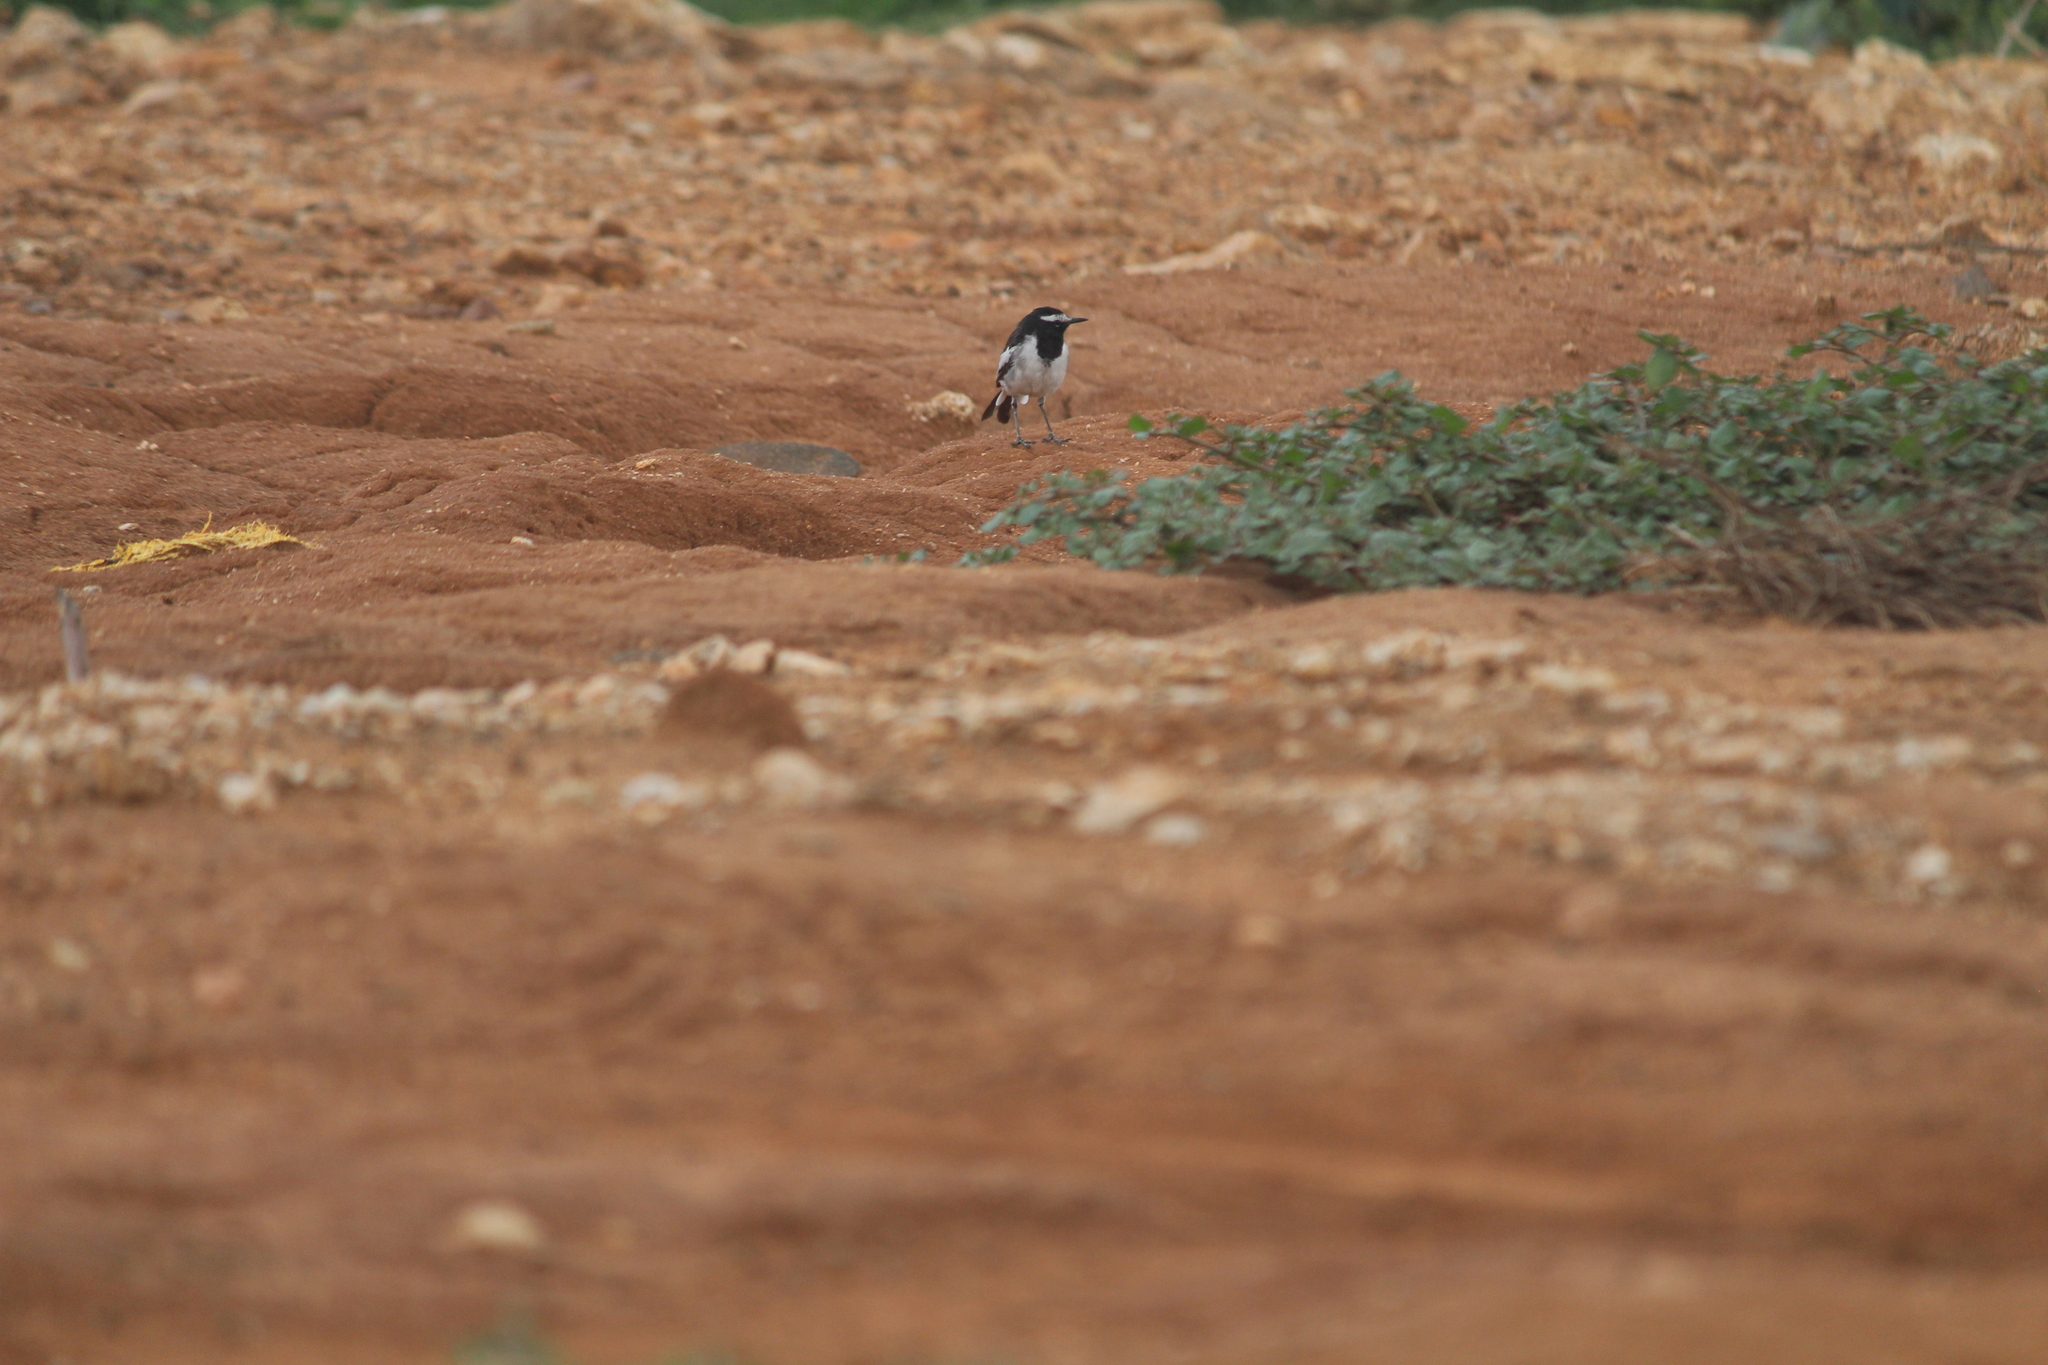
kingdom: Animalia
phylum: Chordata
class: Aves
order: Passeriformes
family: Motacillidae
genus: Motacilla
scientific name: Motacilla maderaspatensis
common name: White-browed wagtail
